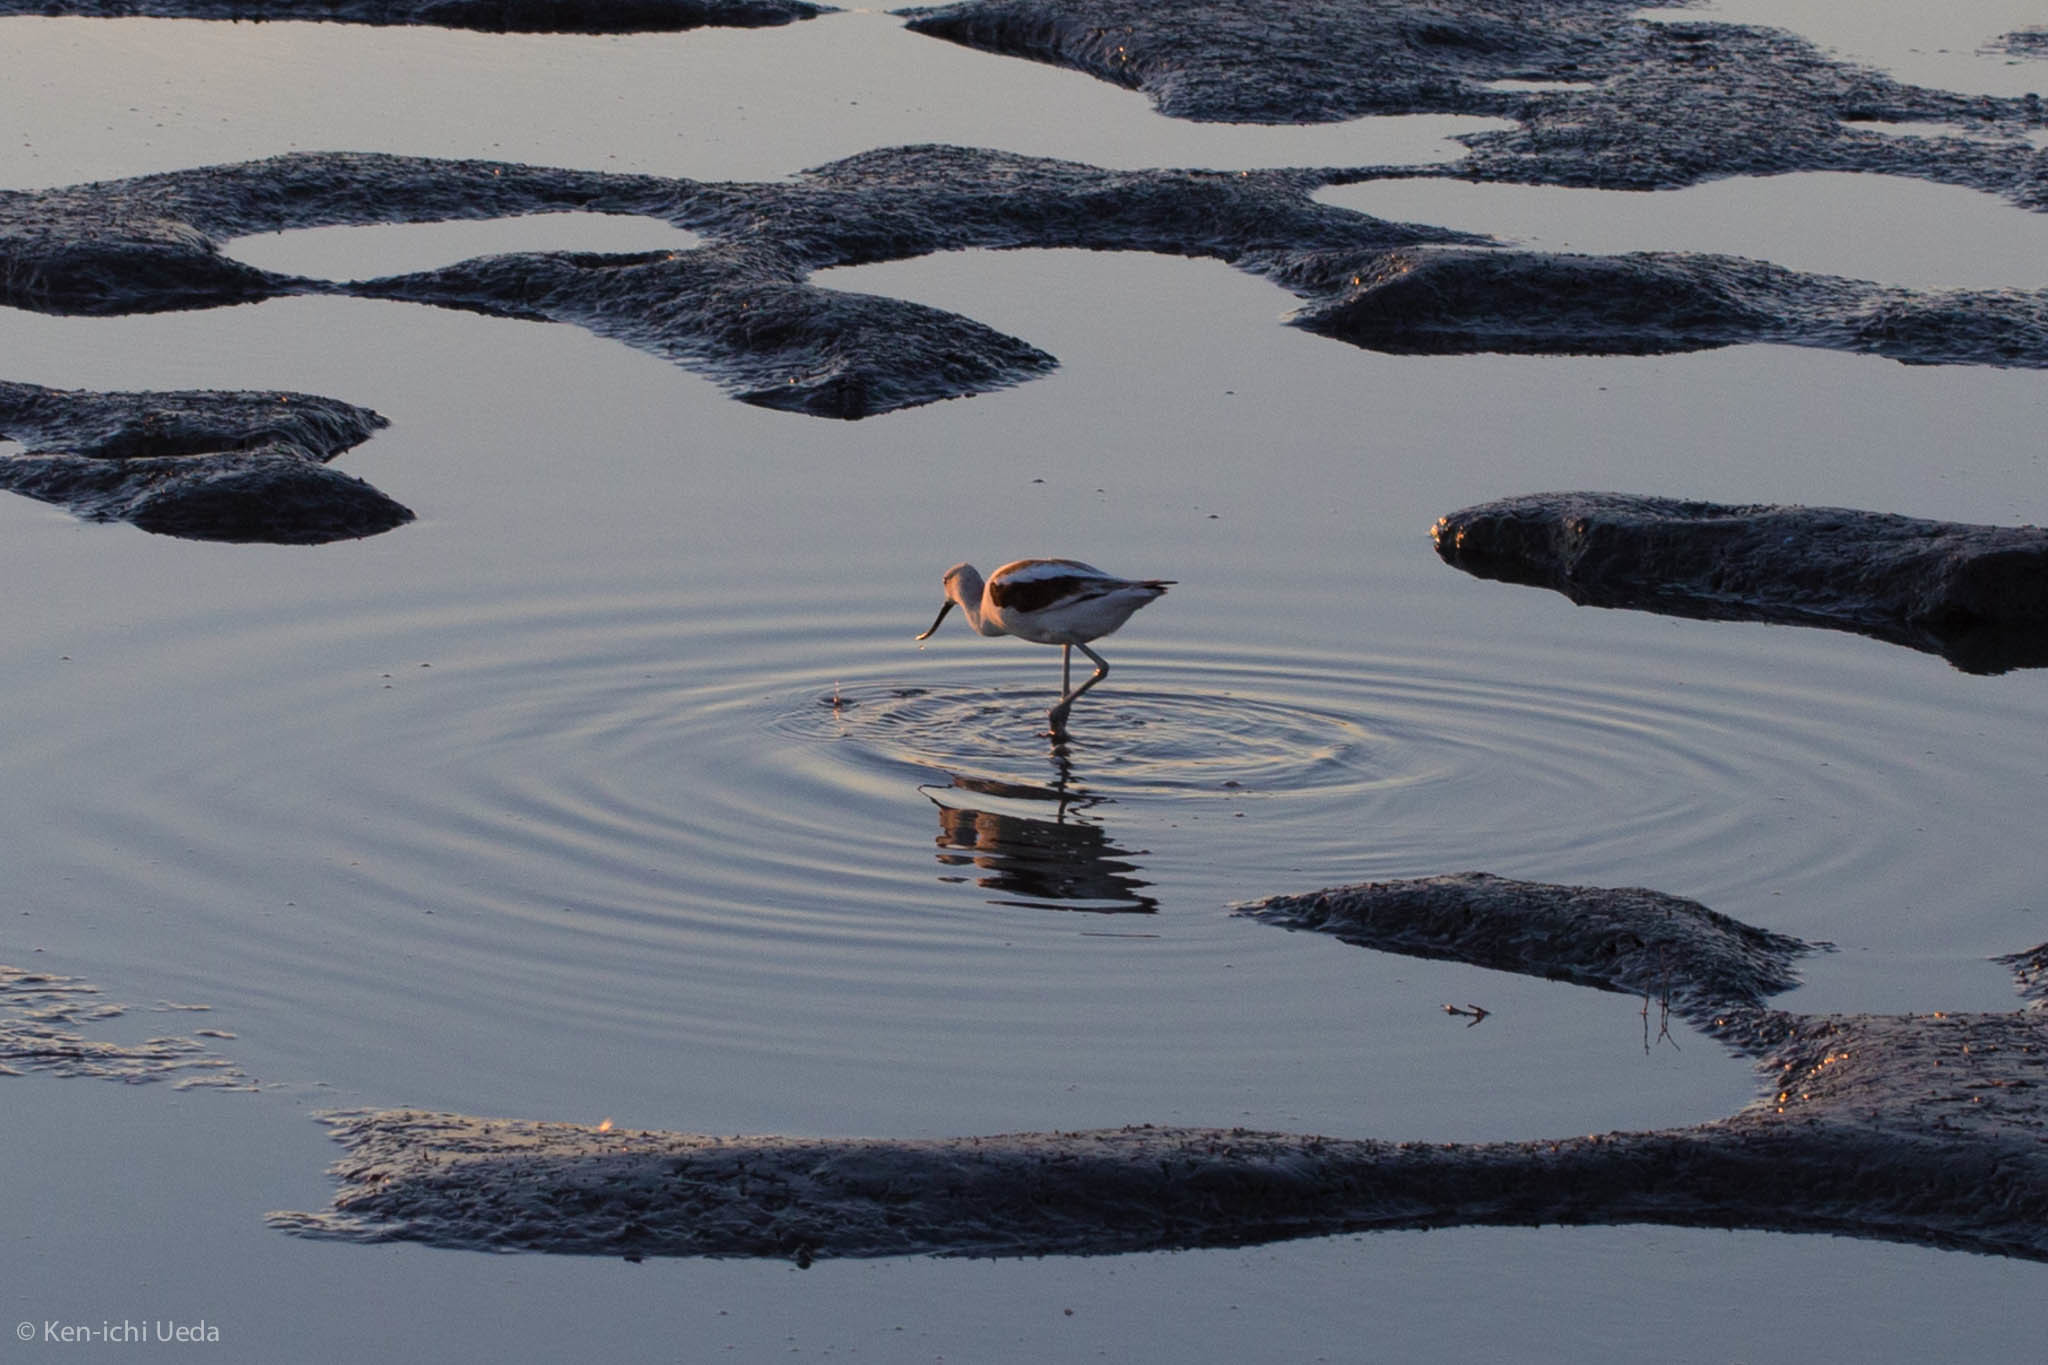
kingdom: Animalia
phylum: Chordata
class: Aves
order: Charadriiformes
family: Recurvirostridae
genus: Recurvirostra
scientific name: Recurvirostra americana
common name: American avocet
